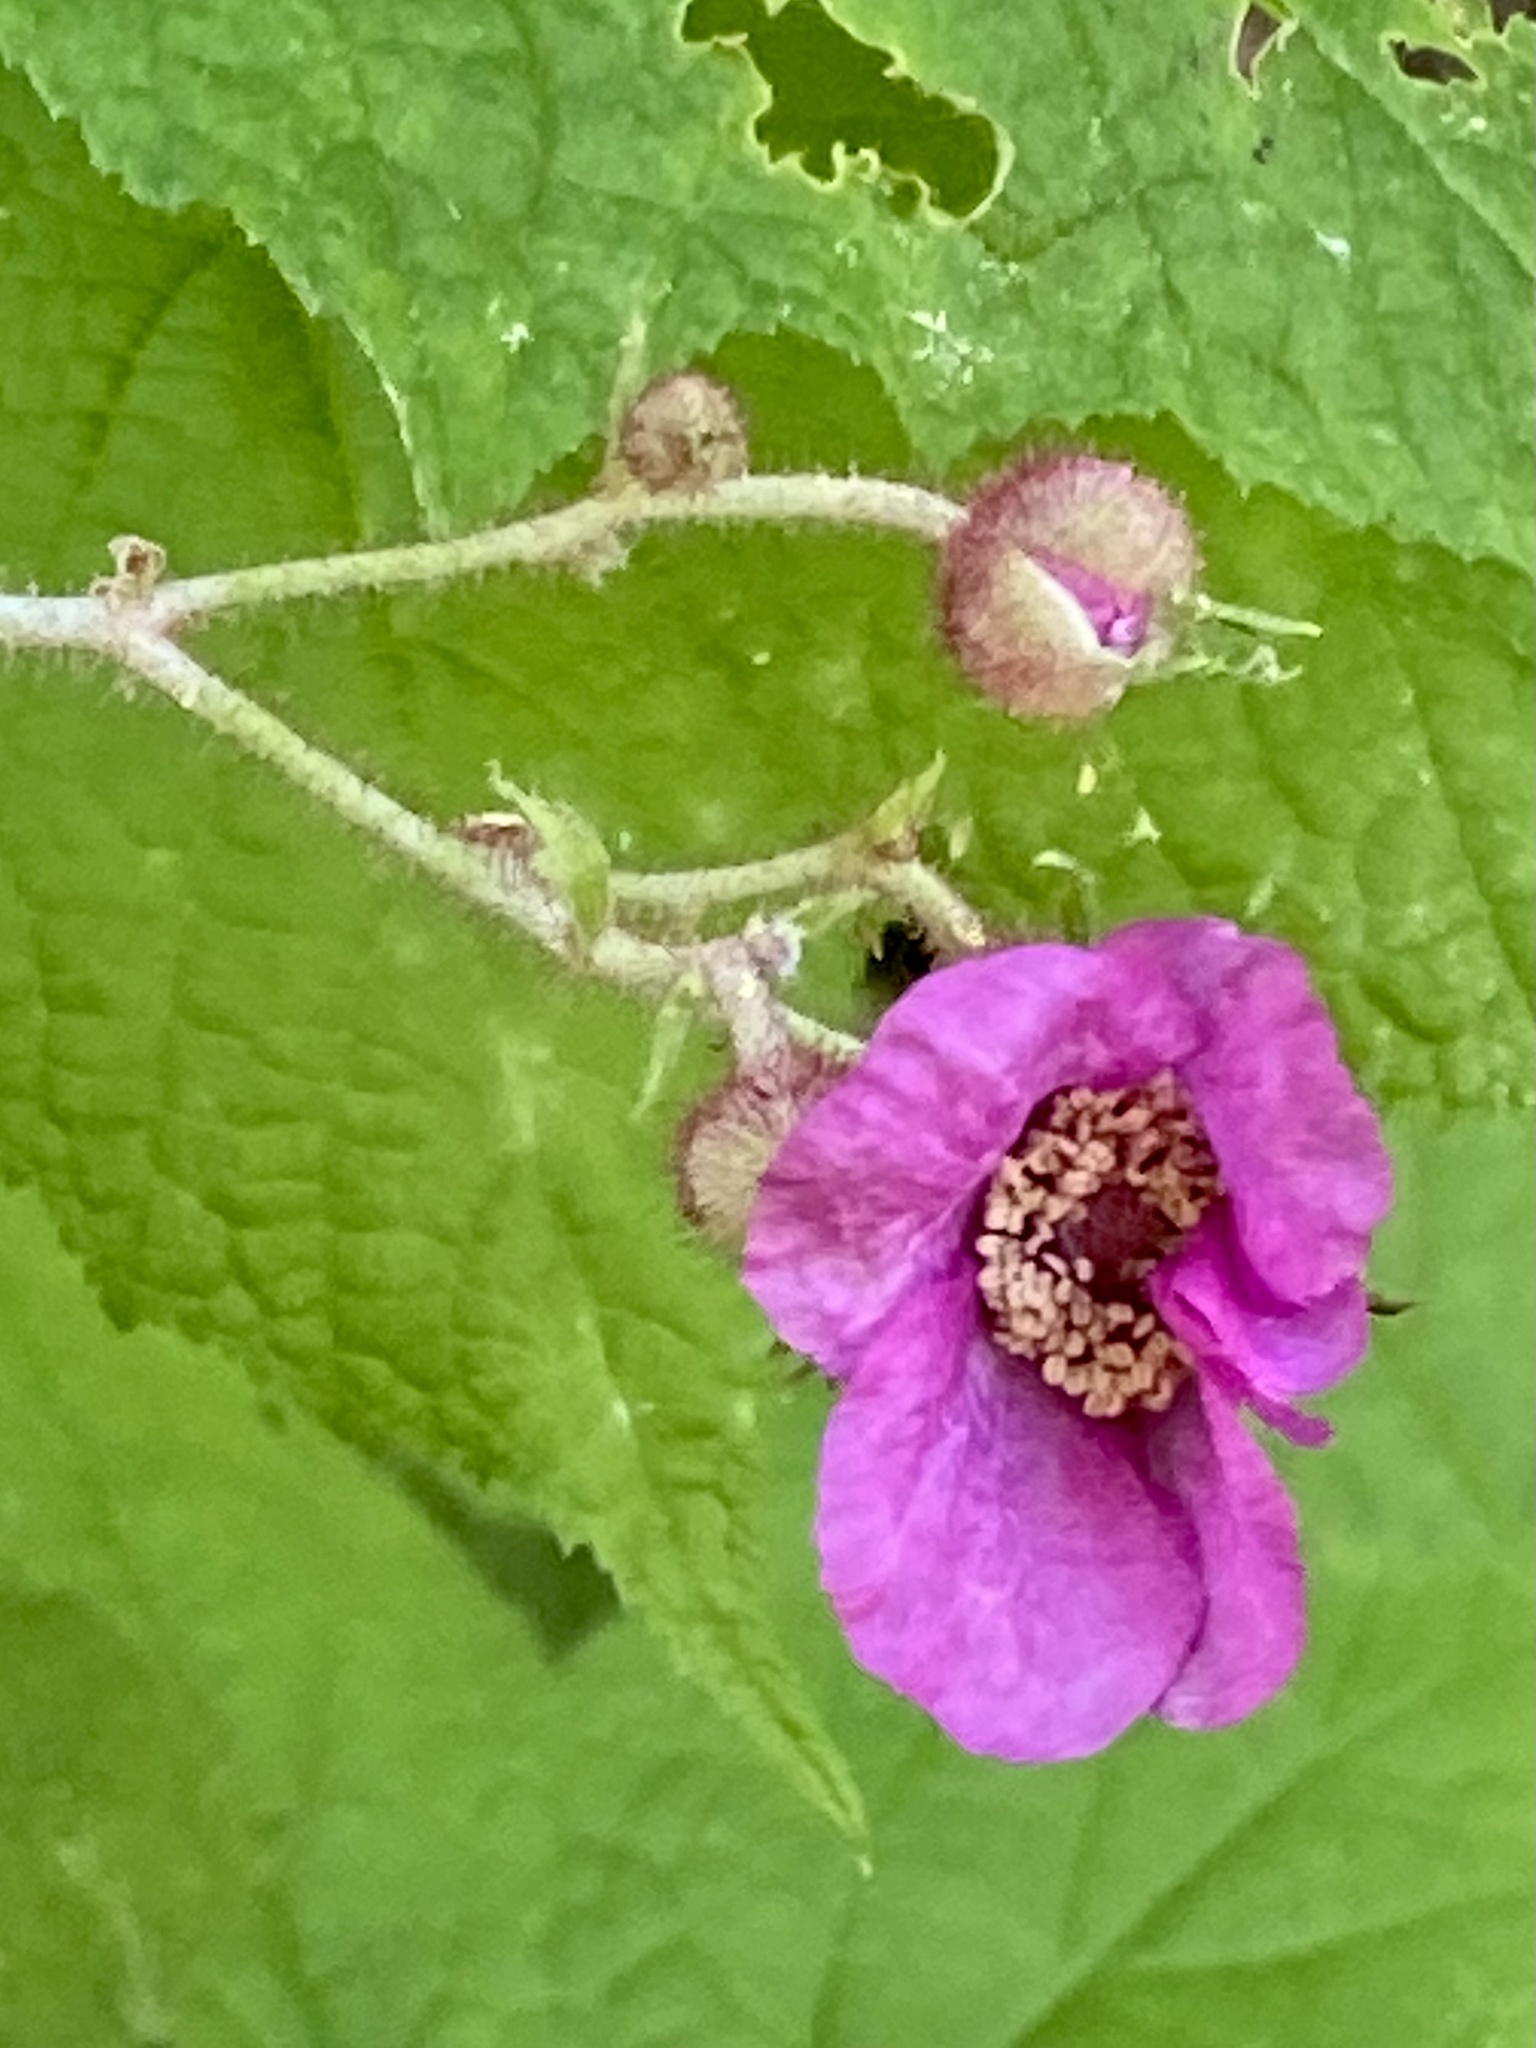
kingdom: Plantae
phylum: Tracheophyta
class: Magnoliopsida
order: Rosales
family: Rosaceae
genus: Rubus
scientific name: Rubus odoratus
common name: Purple-flowered raspberry
